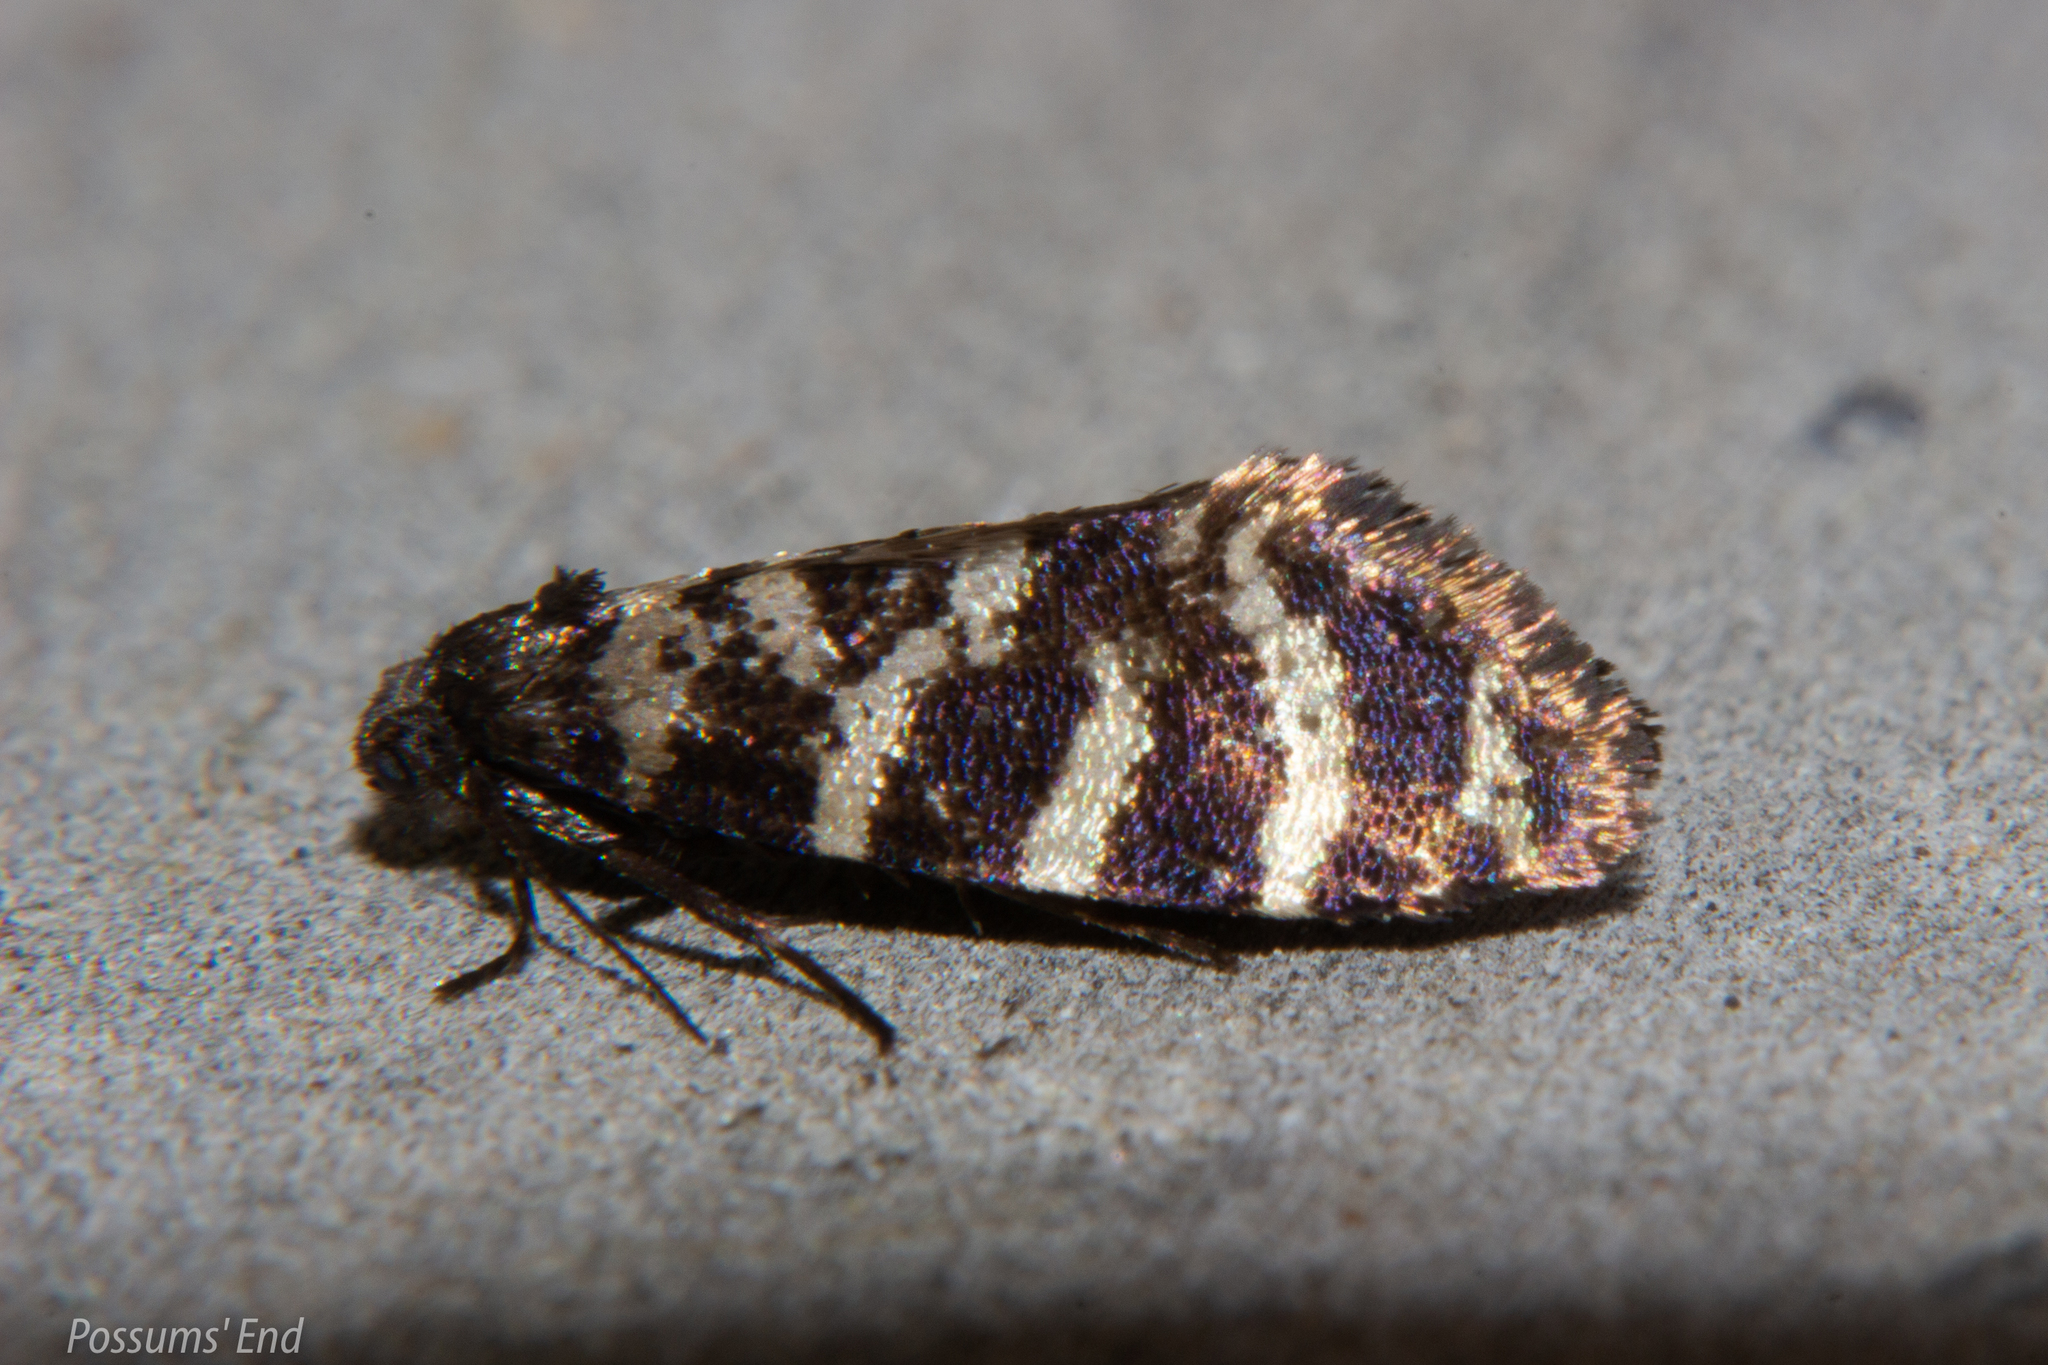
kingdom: Animalia
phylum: Arthropoda
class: Insecta
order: Lepidoptera
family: Psychidae
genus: Mallobathra
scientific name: Mallobathra memotuina
